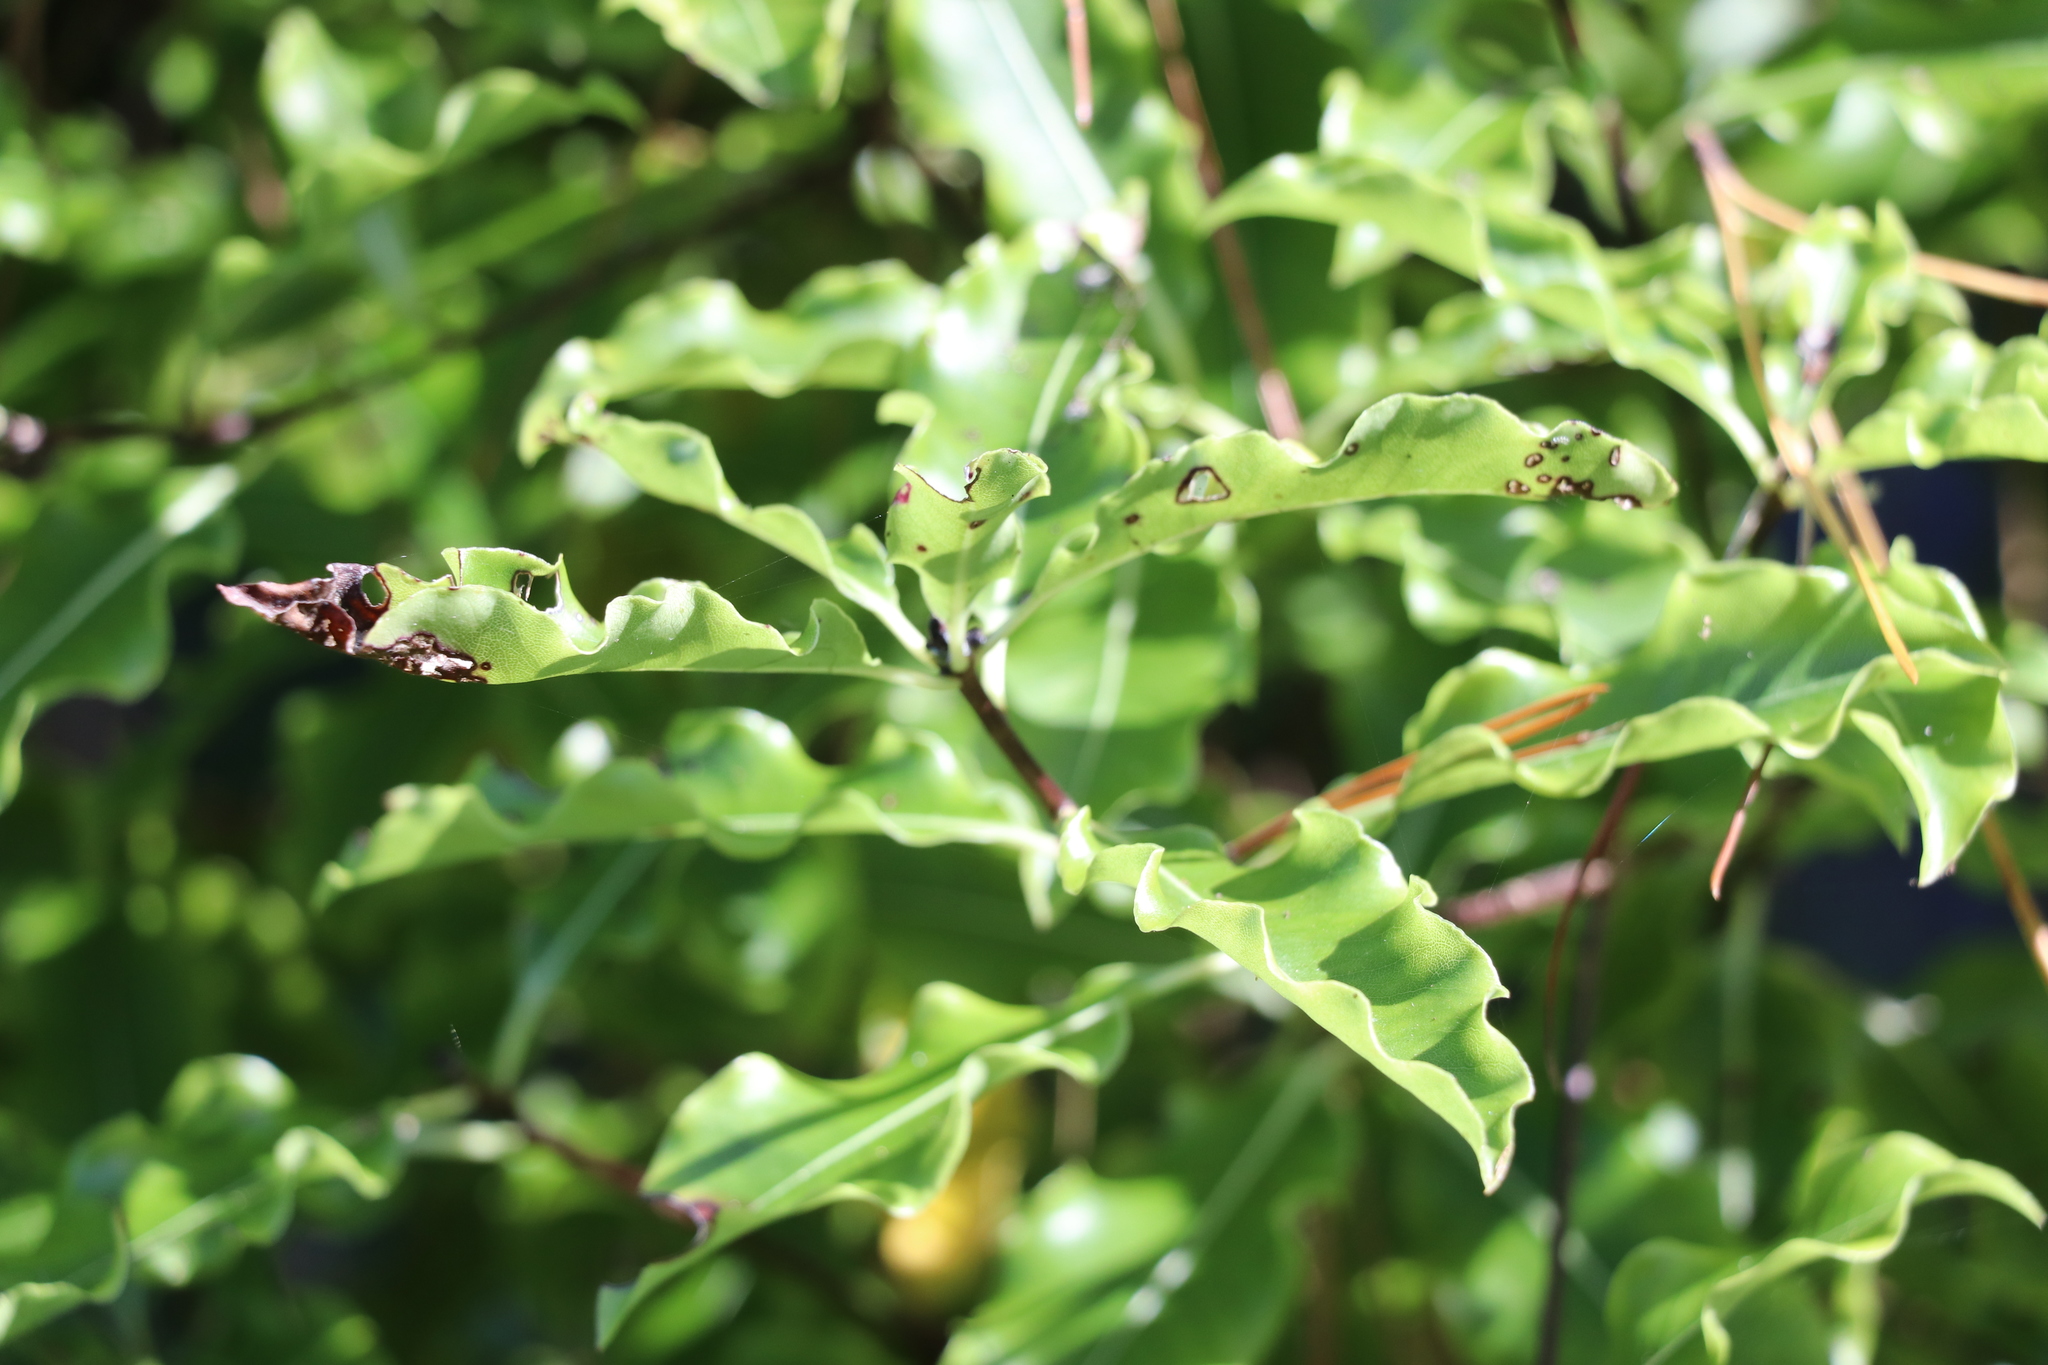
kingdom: Plantae
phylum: Tracheophyta
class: Magnoliopsida
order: Apiales
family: Pittosporaceae
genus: Pittosporum
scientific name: Pittosporum eugenioides
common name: Lemonwood
